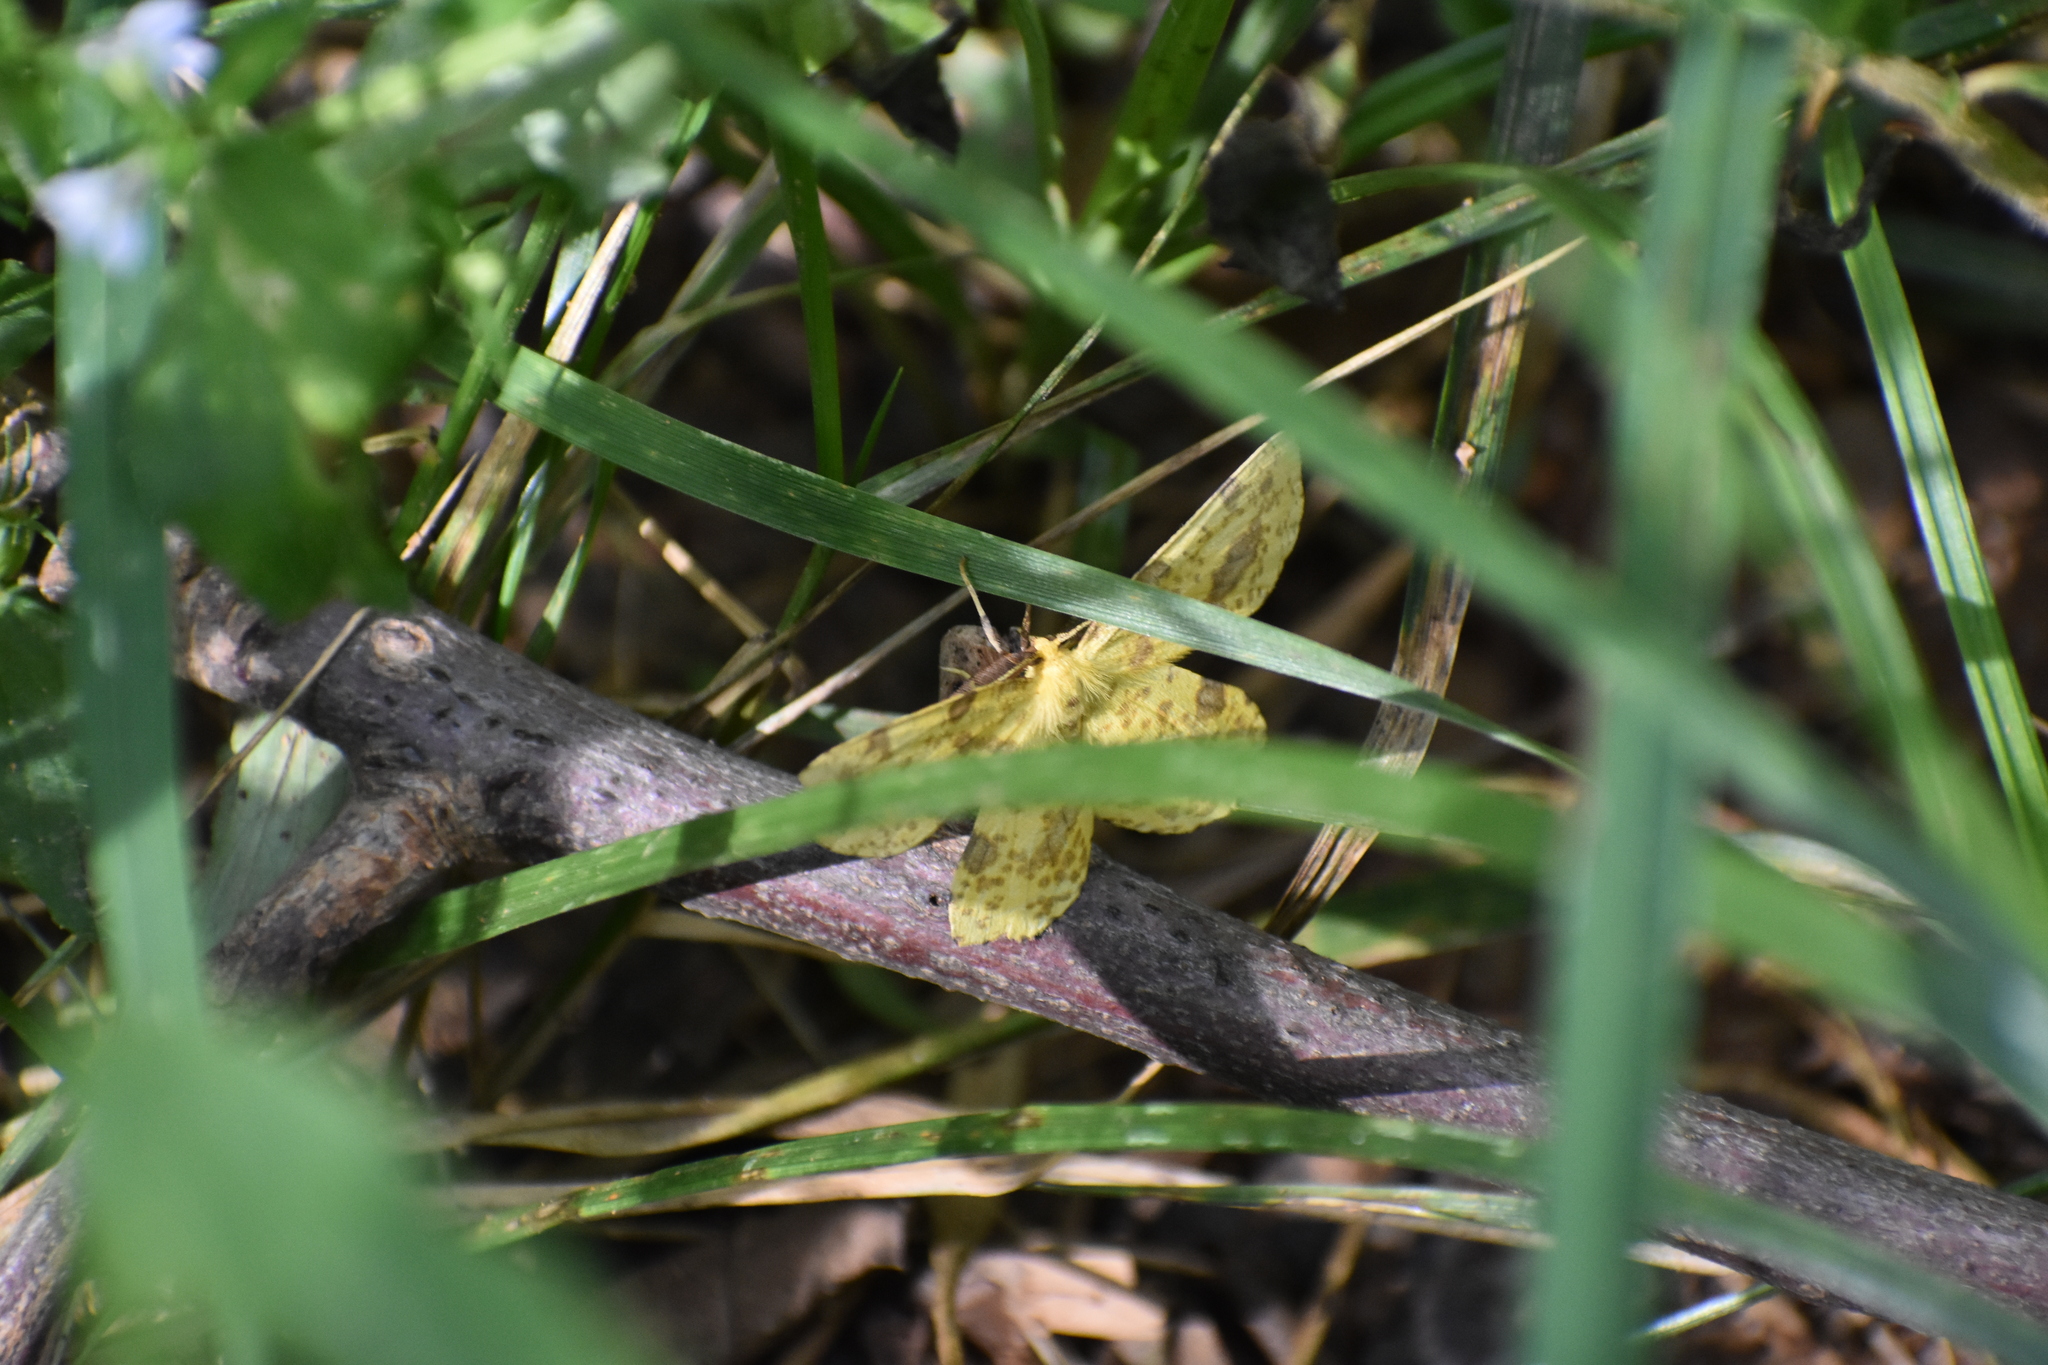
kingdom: Animalia
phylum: Arthropoda
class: Insecta
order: Lepidoptera
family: Geometridae
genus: Xanthotype
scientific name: Xanthotype
